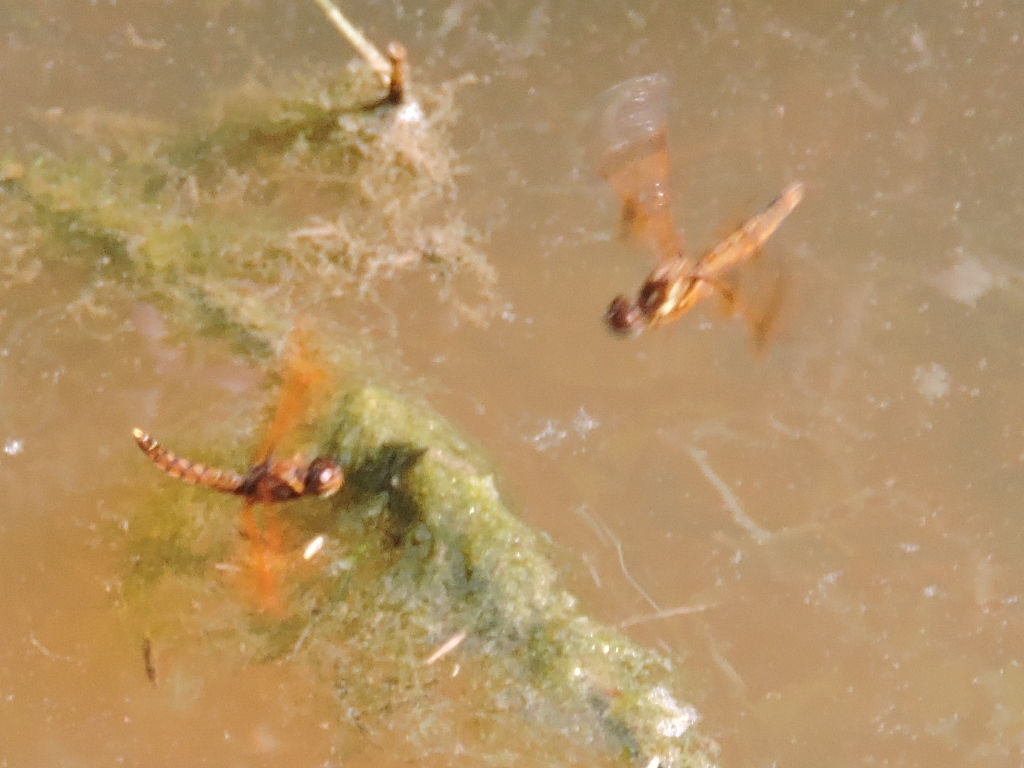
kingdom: Animalia
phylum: Arthropoda
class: Insecta
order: Odonata
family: Libellulidae
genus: Perithemis
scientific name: Perithemis tenera
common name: Eastern amberwing
